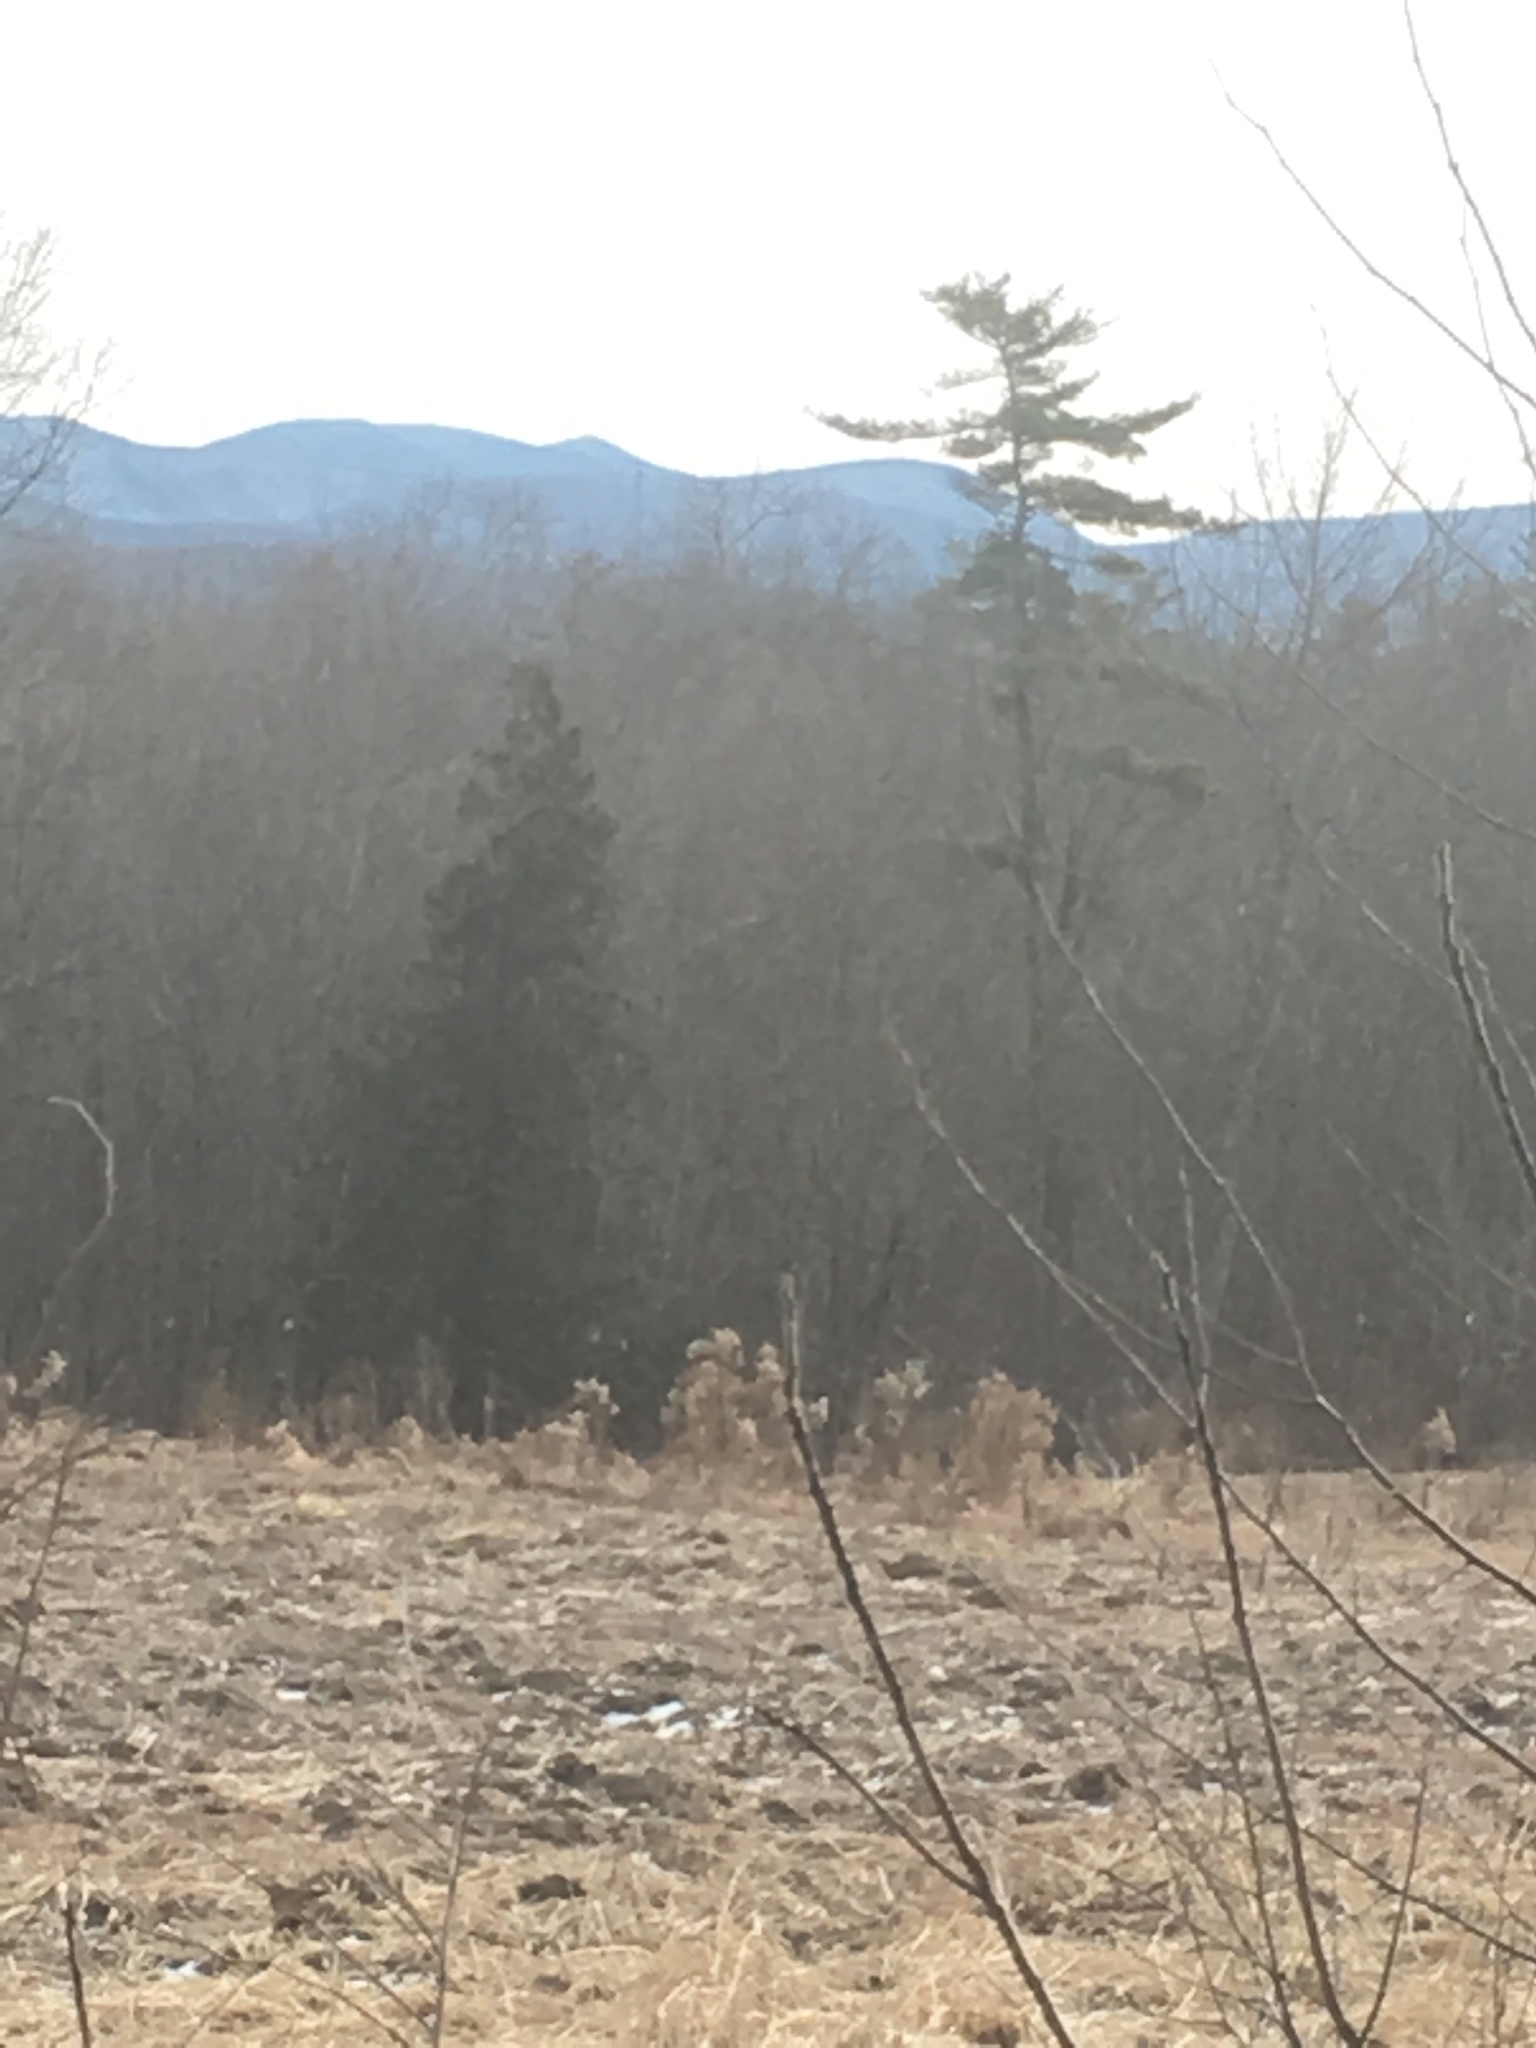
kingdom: Plantae
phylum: Tracheophyta
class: Pinopsida
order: Pinales
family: Pinaceae
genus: Pinus
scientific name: Pinus strobus
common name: Weymouth pine
